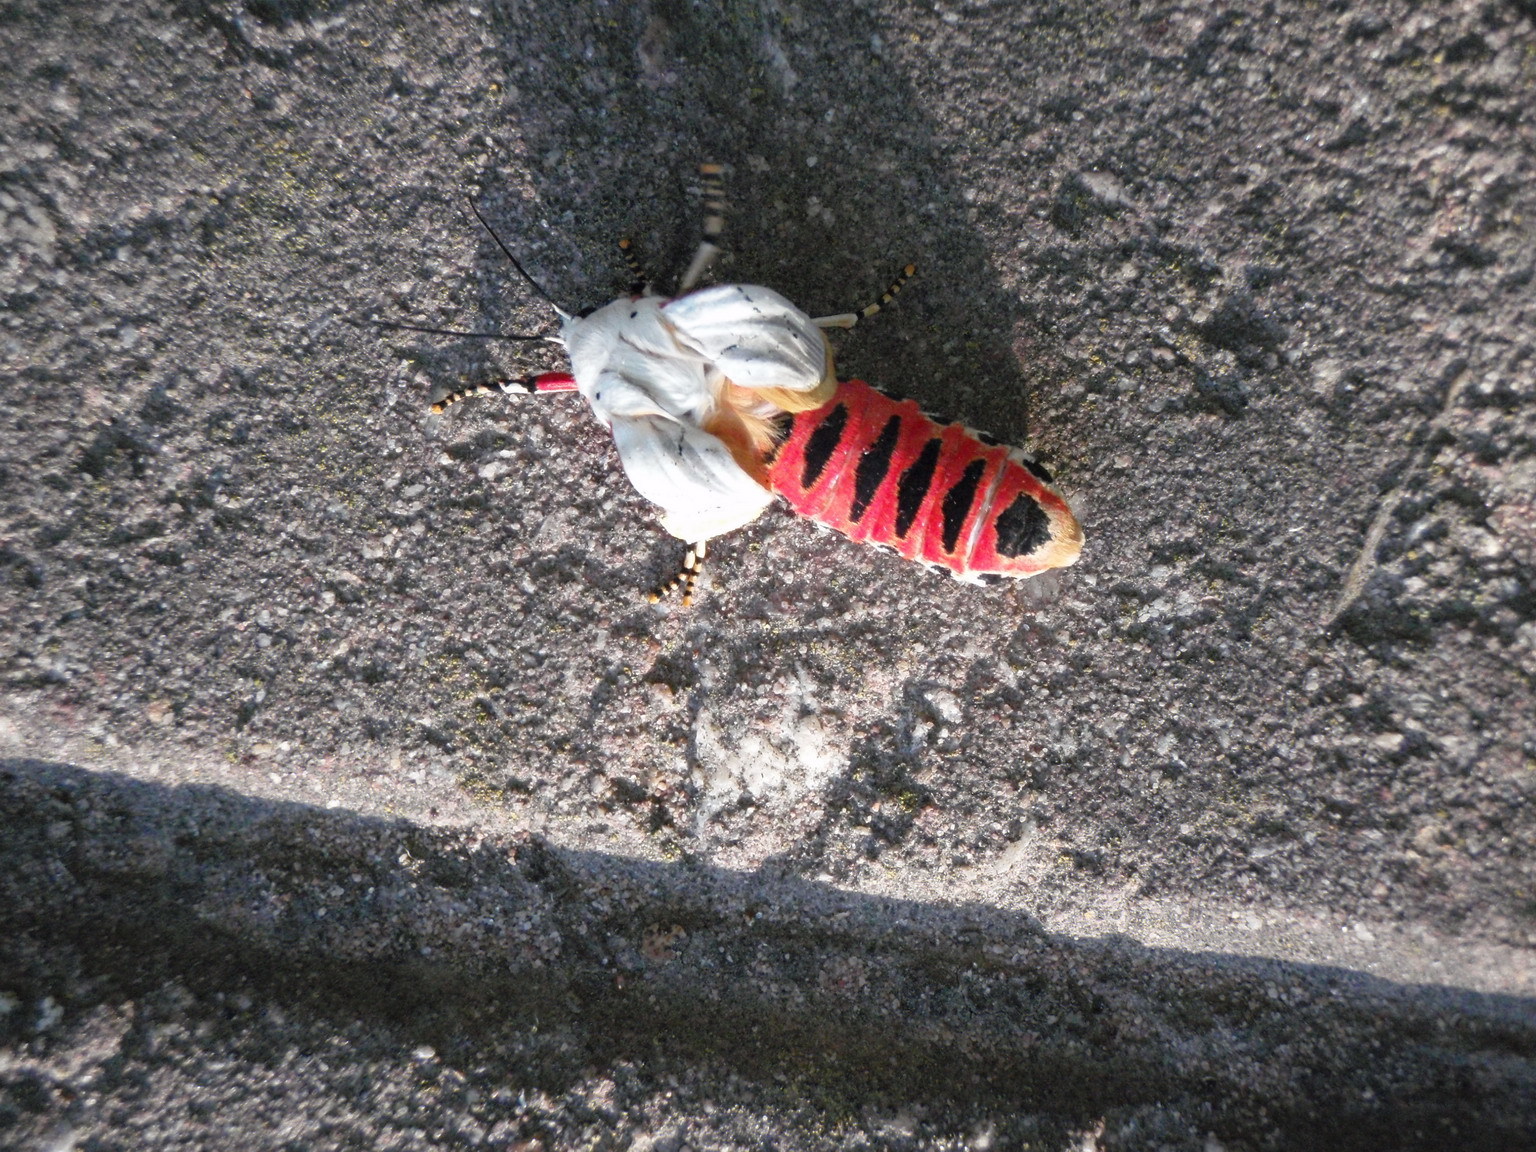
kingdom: Animalia
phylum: Arthropoda
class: Insecta
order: Lepidoptera
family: Erebidae
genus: Rhodogastria
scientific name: Rhodogastria amasis
